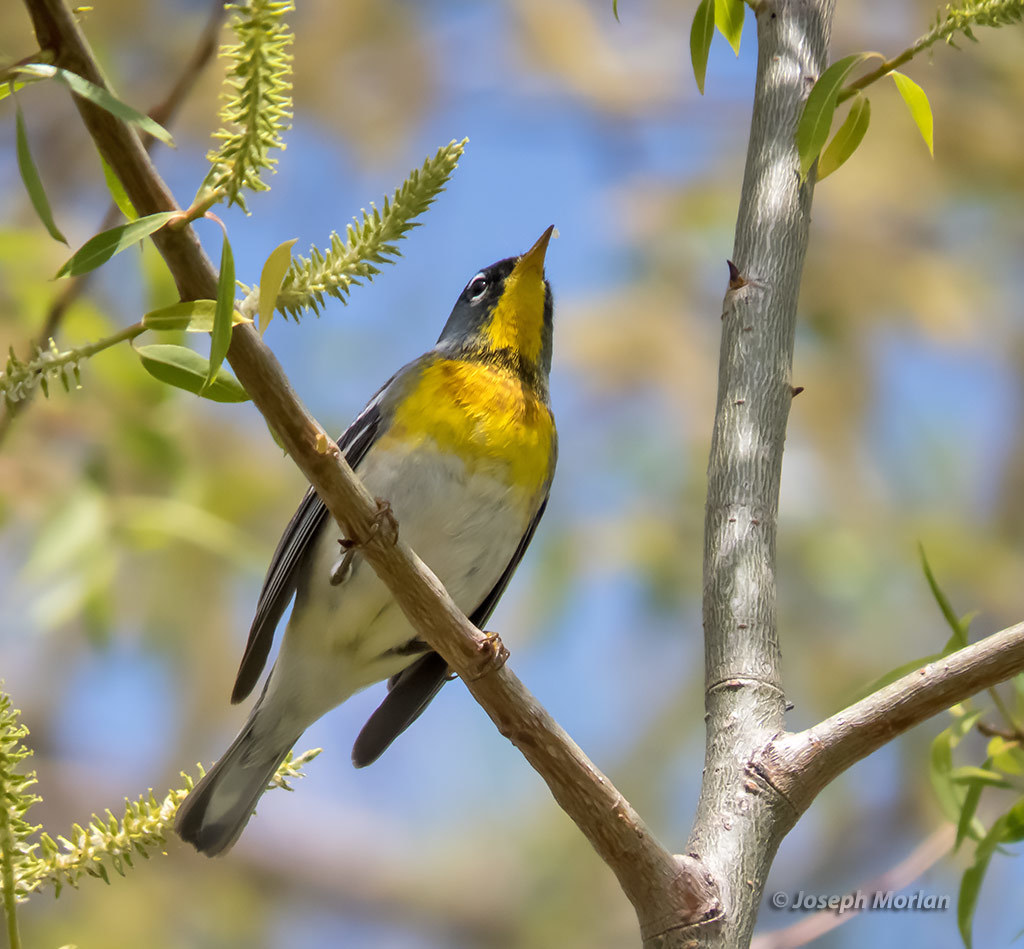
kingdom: Animalia
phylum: Chordata
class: Aves
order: Passeriformes
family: Parulidae
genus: Setophaga
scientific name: Setophaga americana
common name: Northern parula
